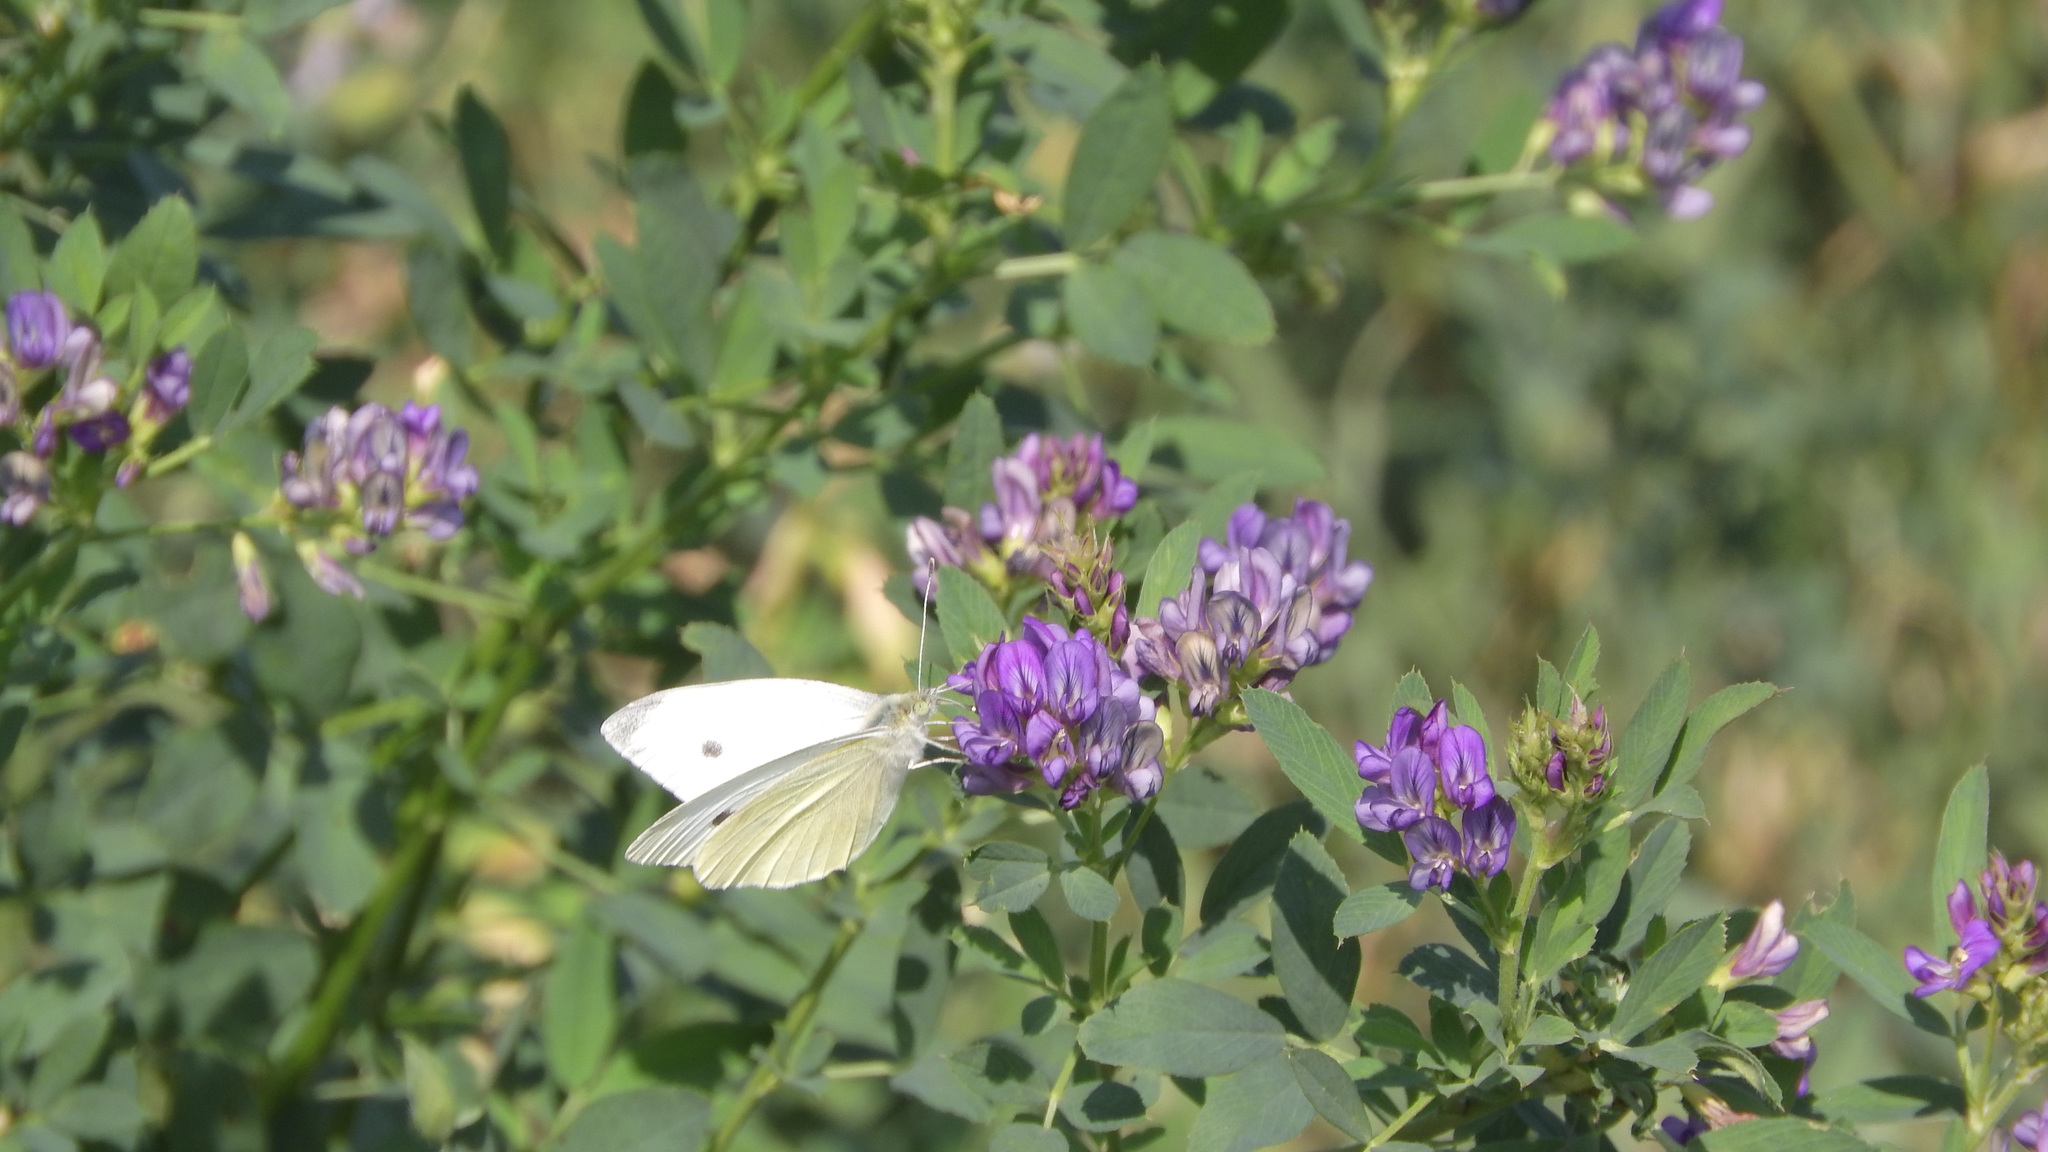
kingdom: Animalia
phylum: Arthropoda
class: Insecta
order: Lepidoptera
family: Pieridae
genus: Pieris
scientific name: Pieris rapae
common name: Small white
